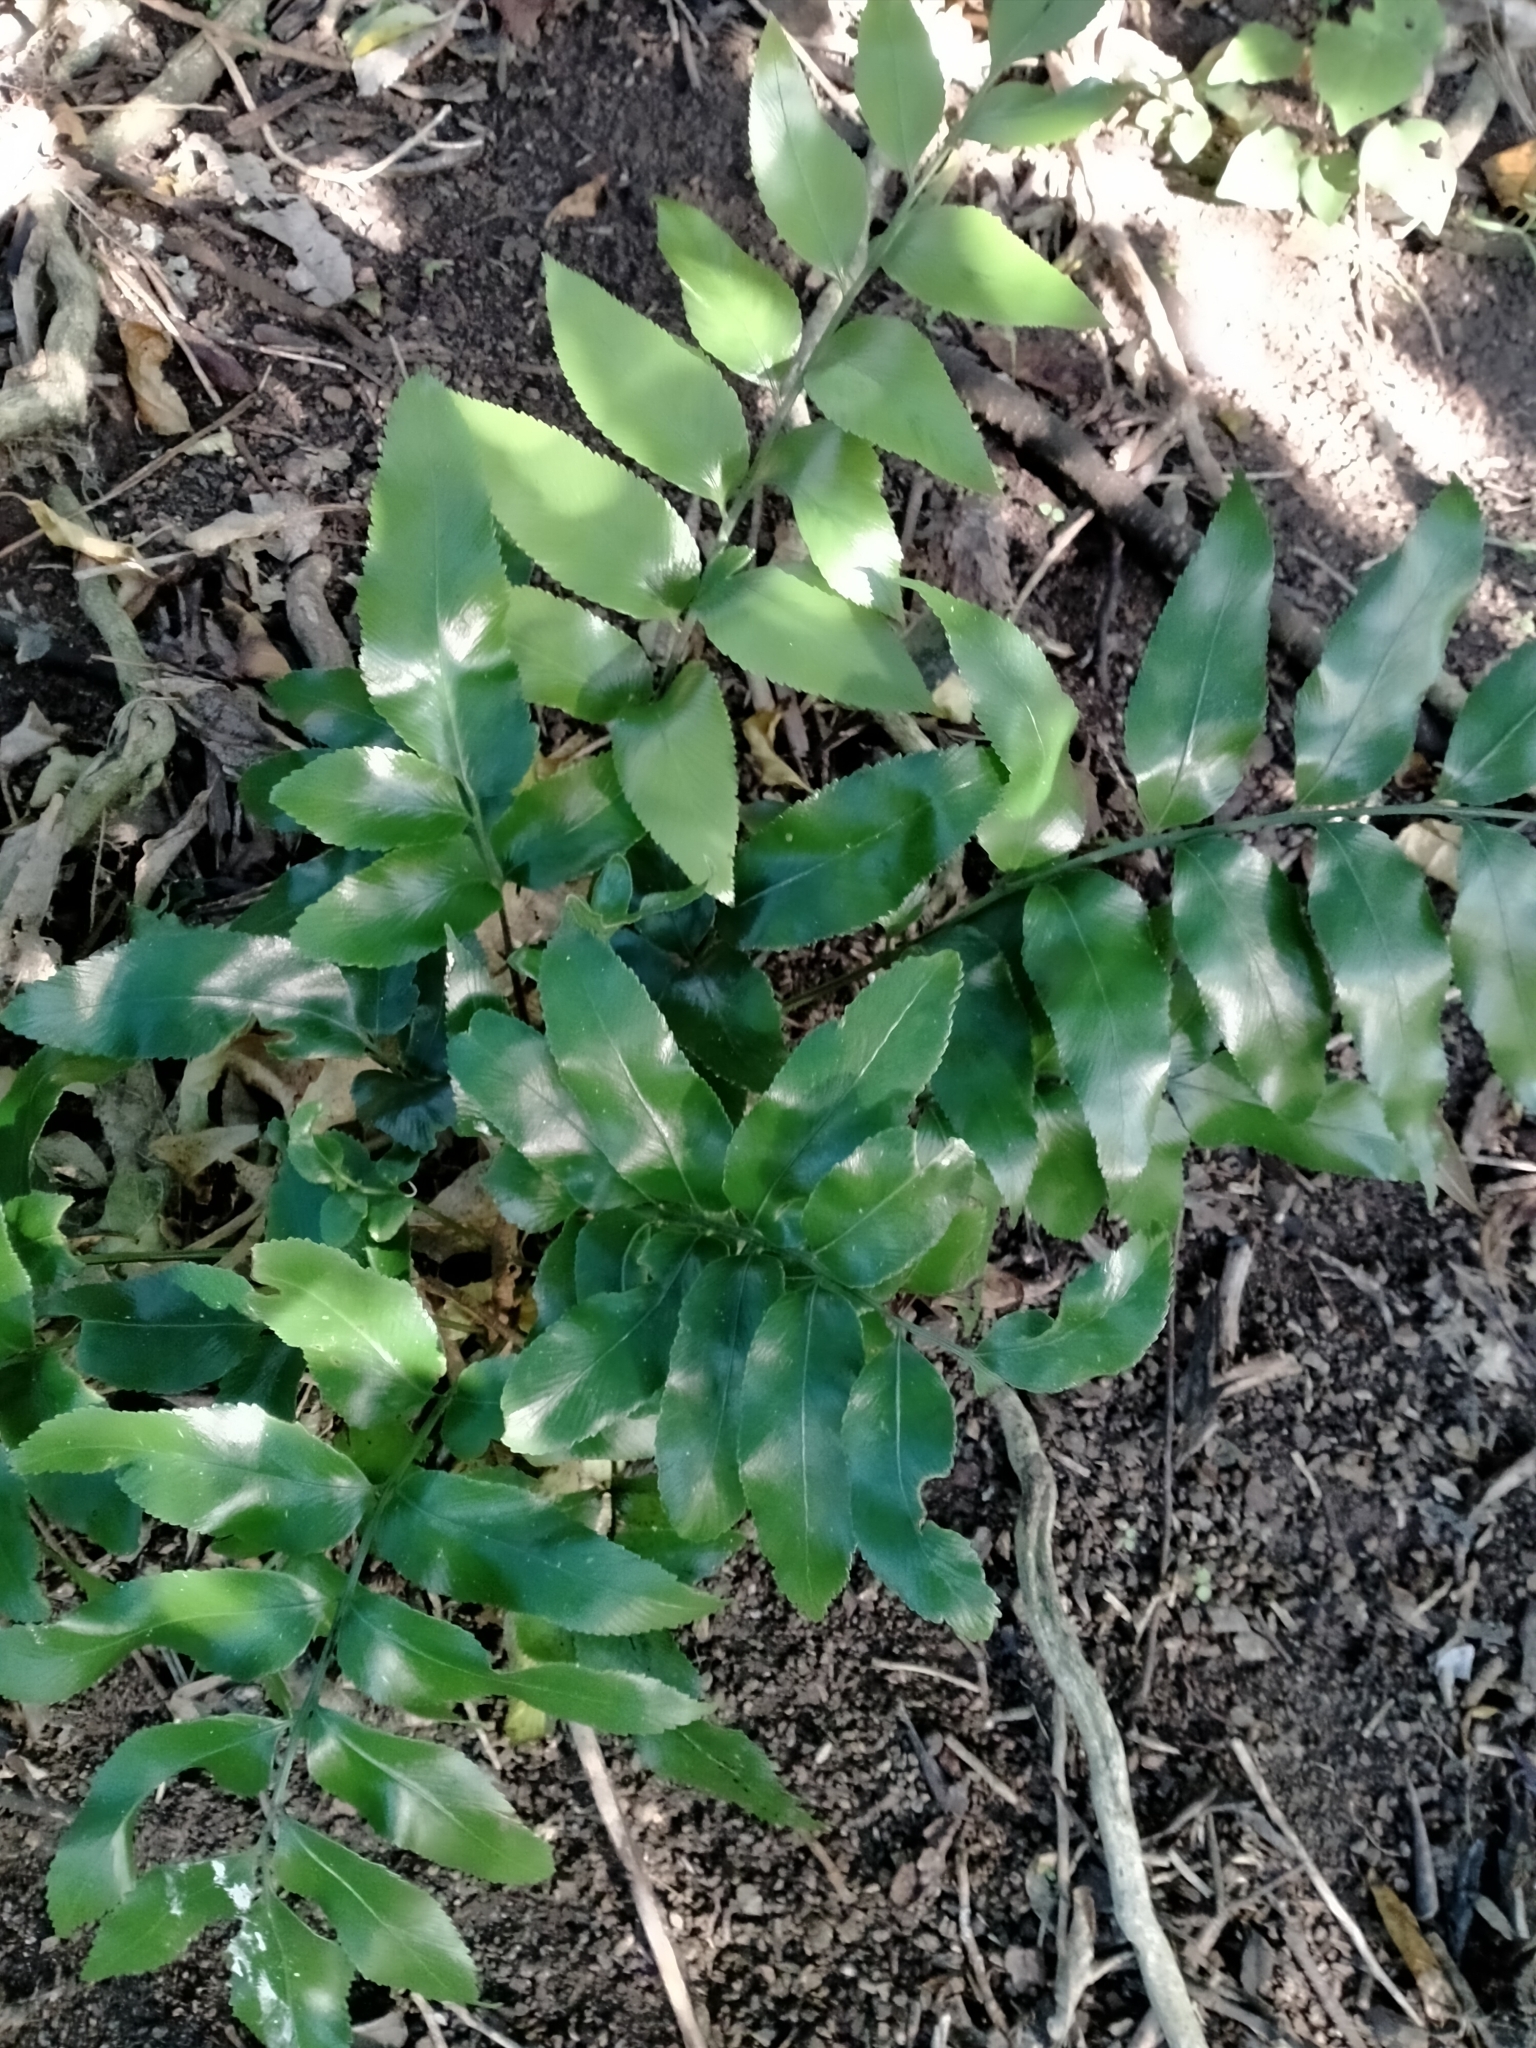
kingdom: Plantae
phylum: Tracheophyta
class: Polypodiopsida
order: Polypodiales
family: Aspleniaceae
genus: Asplenium
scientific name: Asplenium oblongifolium
